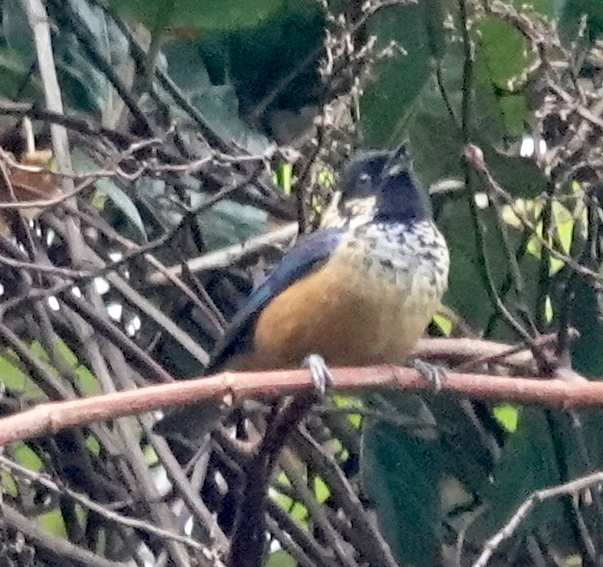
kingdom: Animalia
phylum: Chordata
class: Aves
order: Passeriformes
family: Thraupidae
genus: Tangara
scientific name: Tangara dowii
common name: Spangle-cheeked tanager
